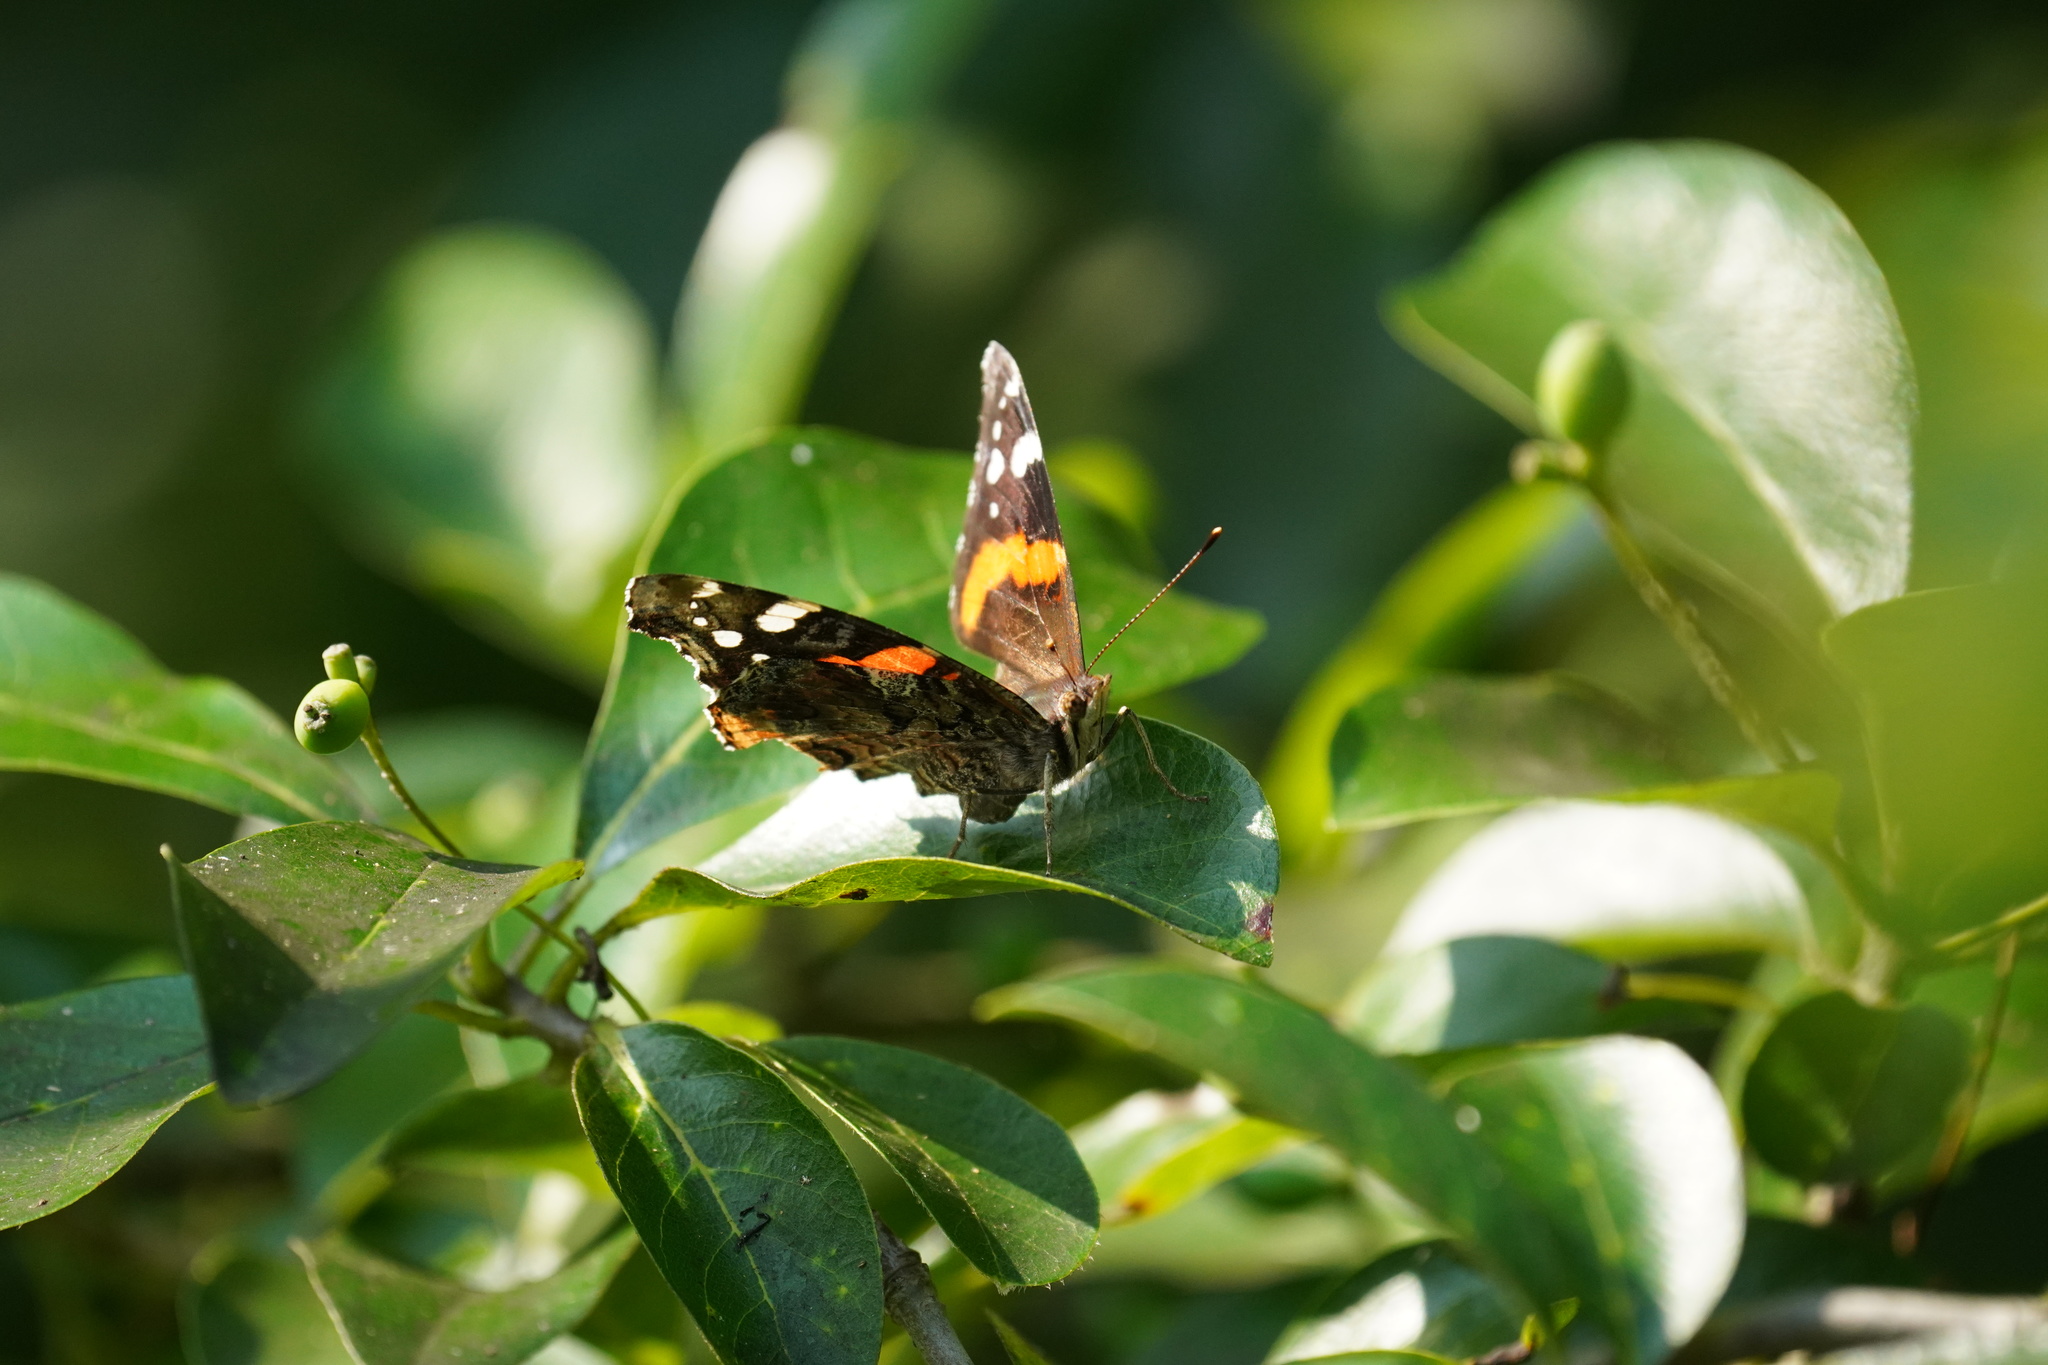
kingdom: Animalia
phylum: Arthropoda
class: Insecta
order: Lepidoptera
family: Nymphalidae
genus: Vanessa
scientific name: Vanessa atalanta
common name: Red admiral
